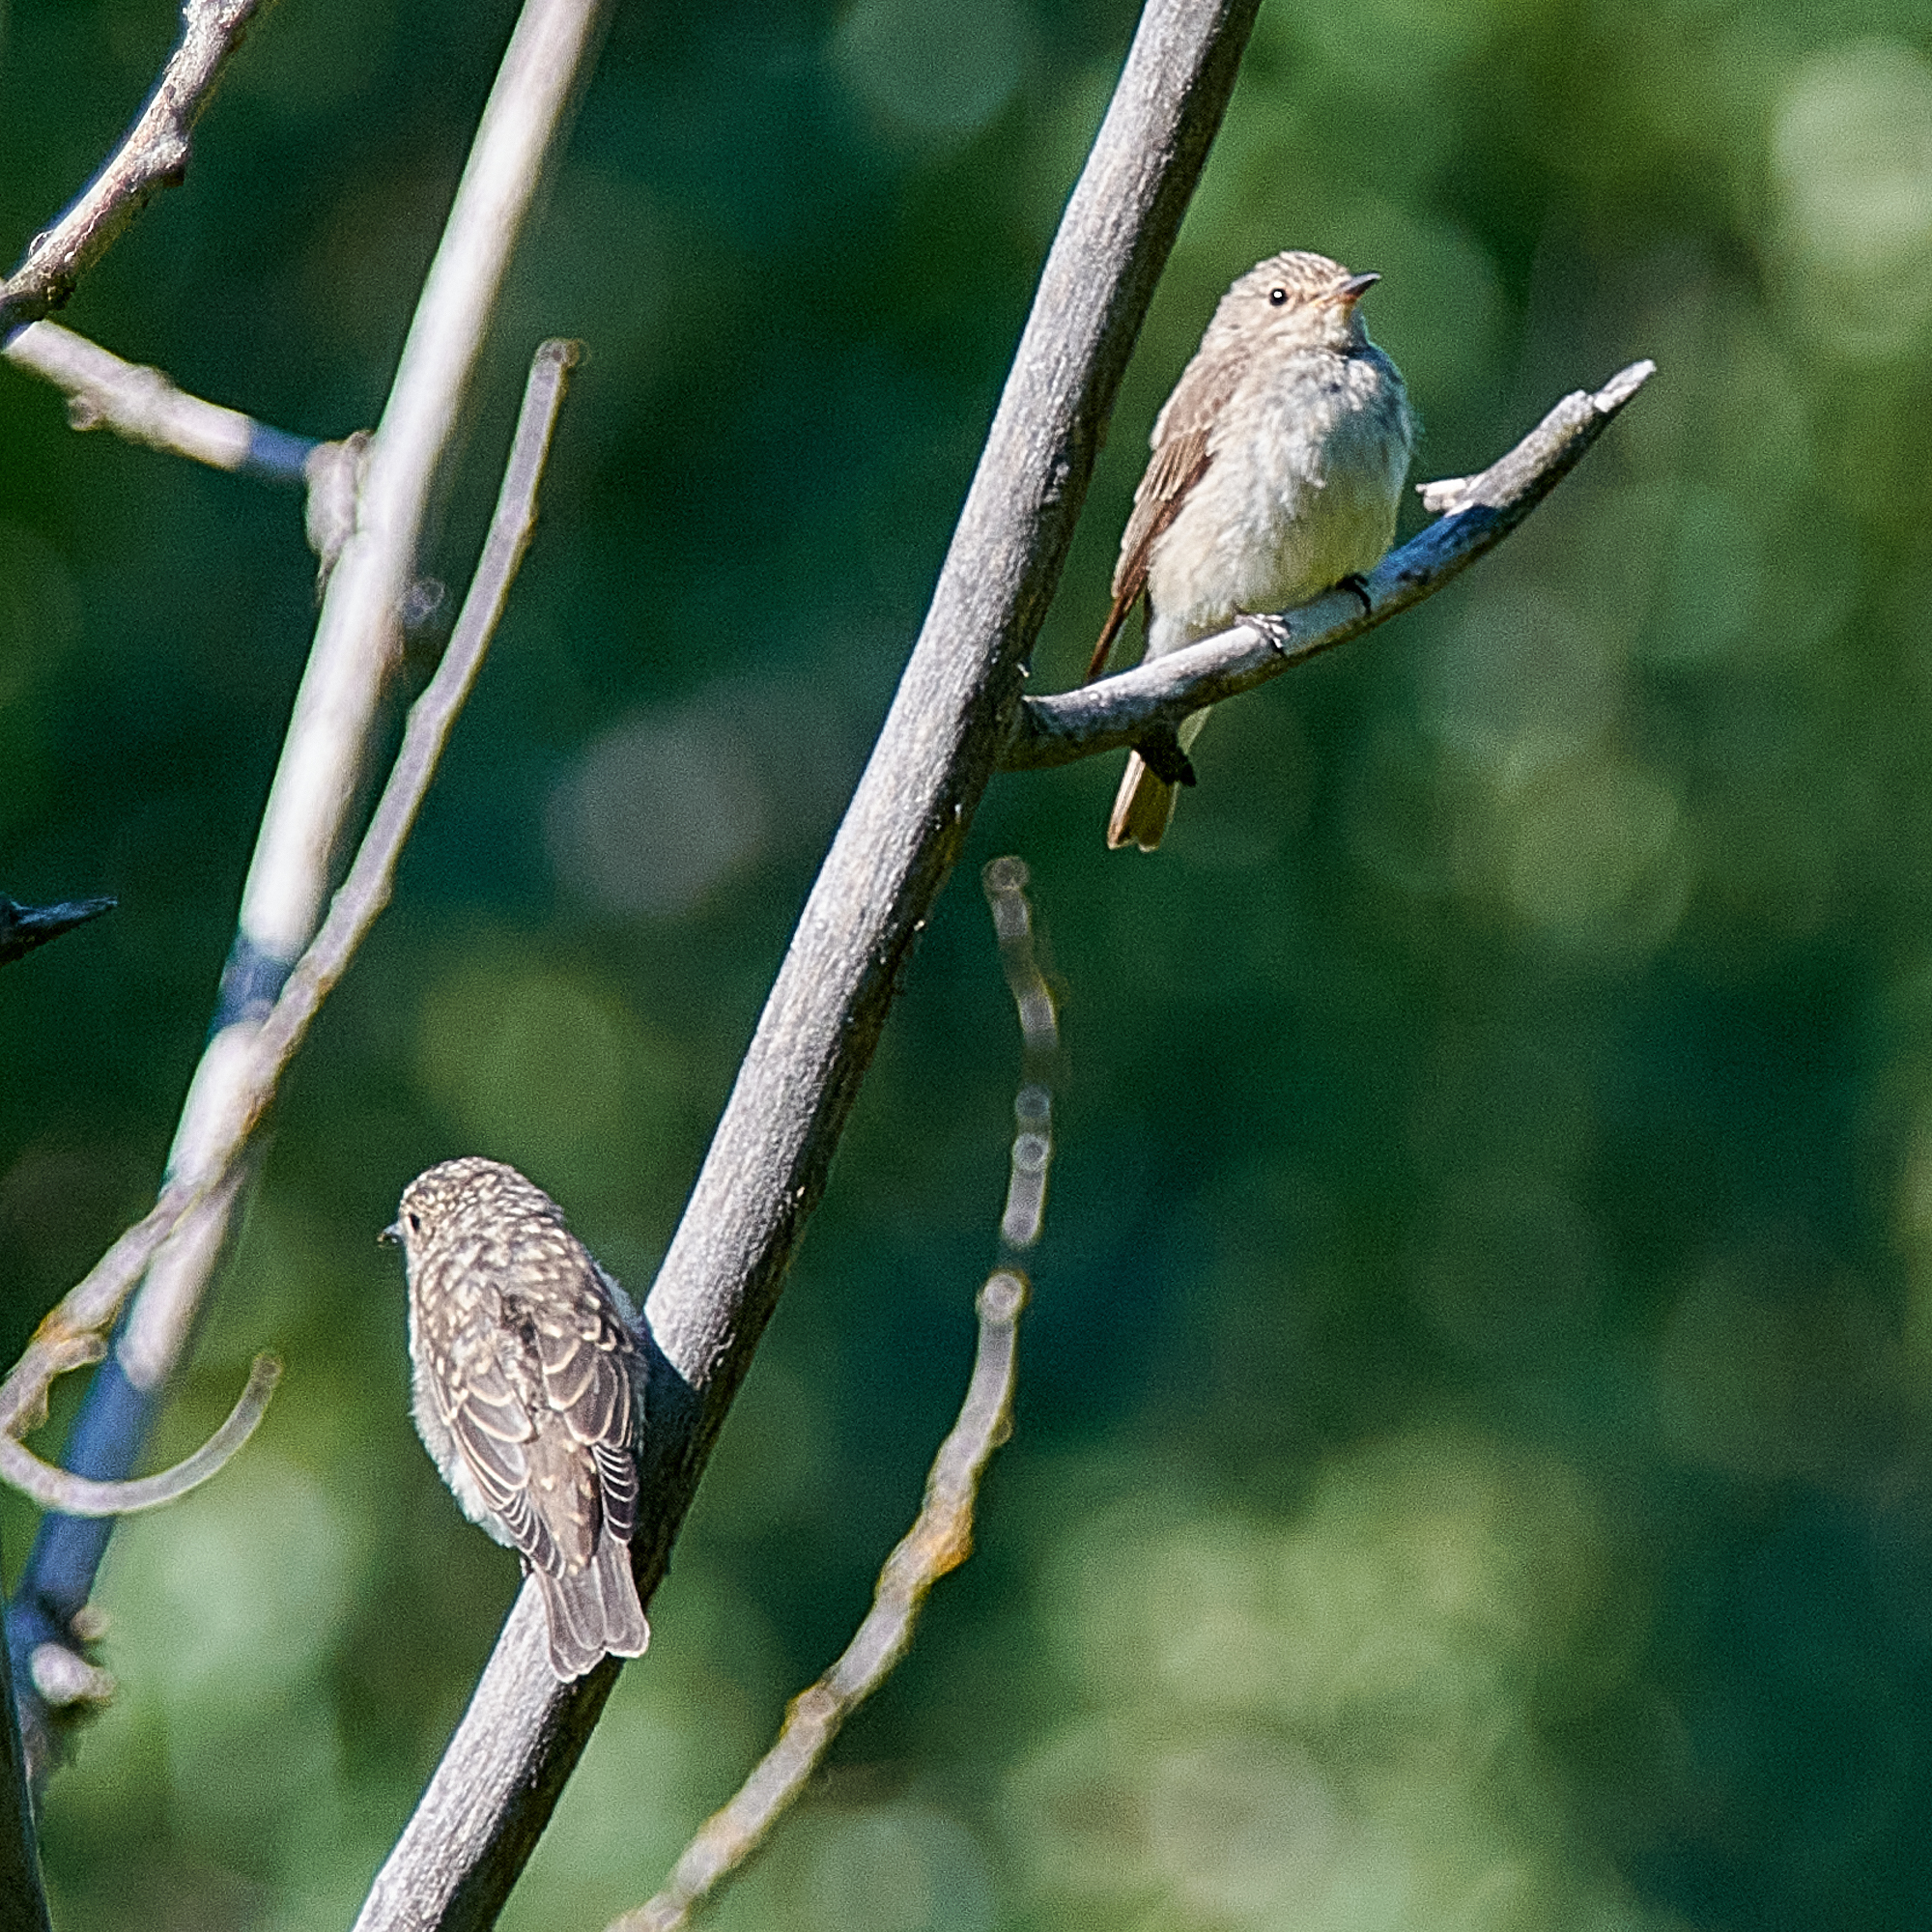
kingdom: Animalia
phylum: Chordata
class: Aves
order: Passeriformes
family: Muscicapidae
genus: Muscicapa
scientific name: Muscicapa striata
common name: Spotted flycatcher
